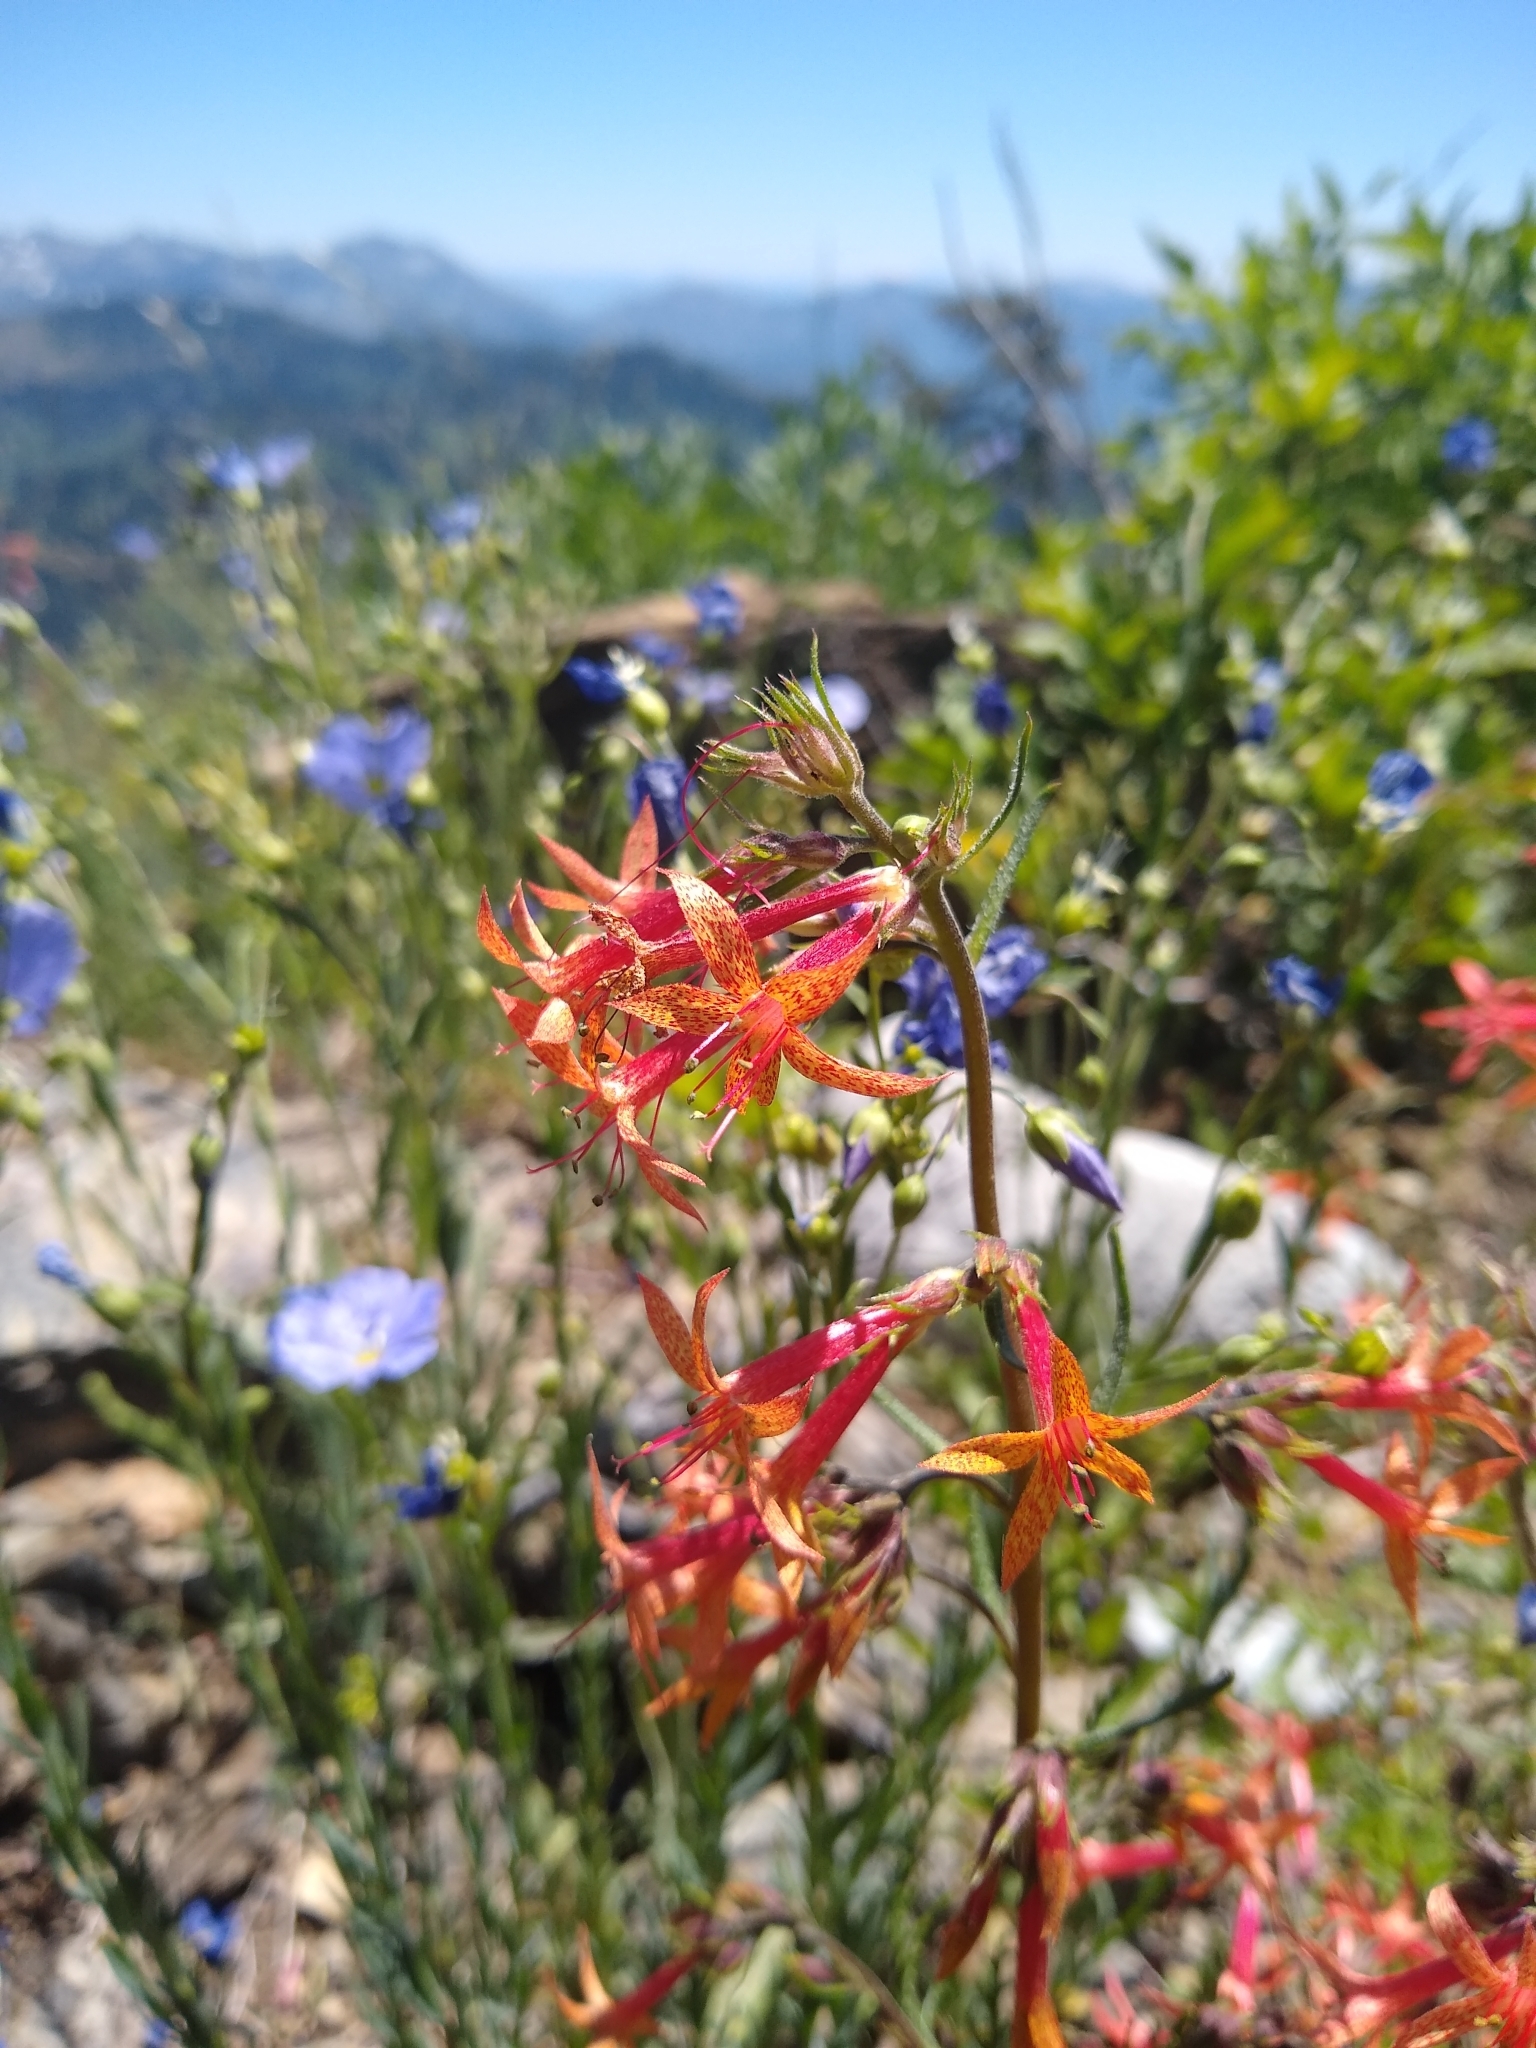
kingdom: Plantae
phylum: Tracheophyta
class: Magnoliopsida
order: Ericales
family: Polemoniaceae
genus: Ipomopsis
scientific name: Ipomopsis aggregata
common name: Scarlet gilia
